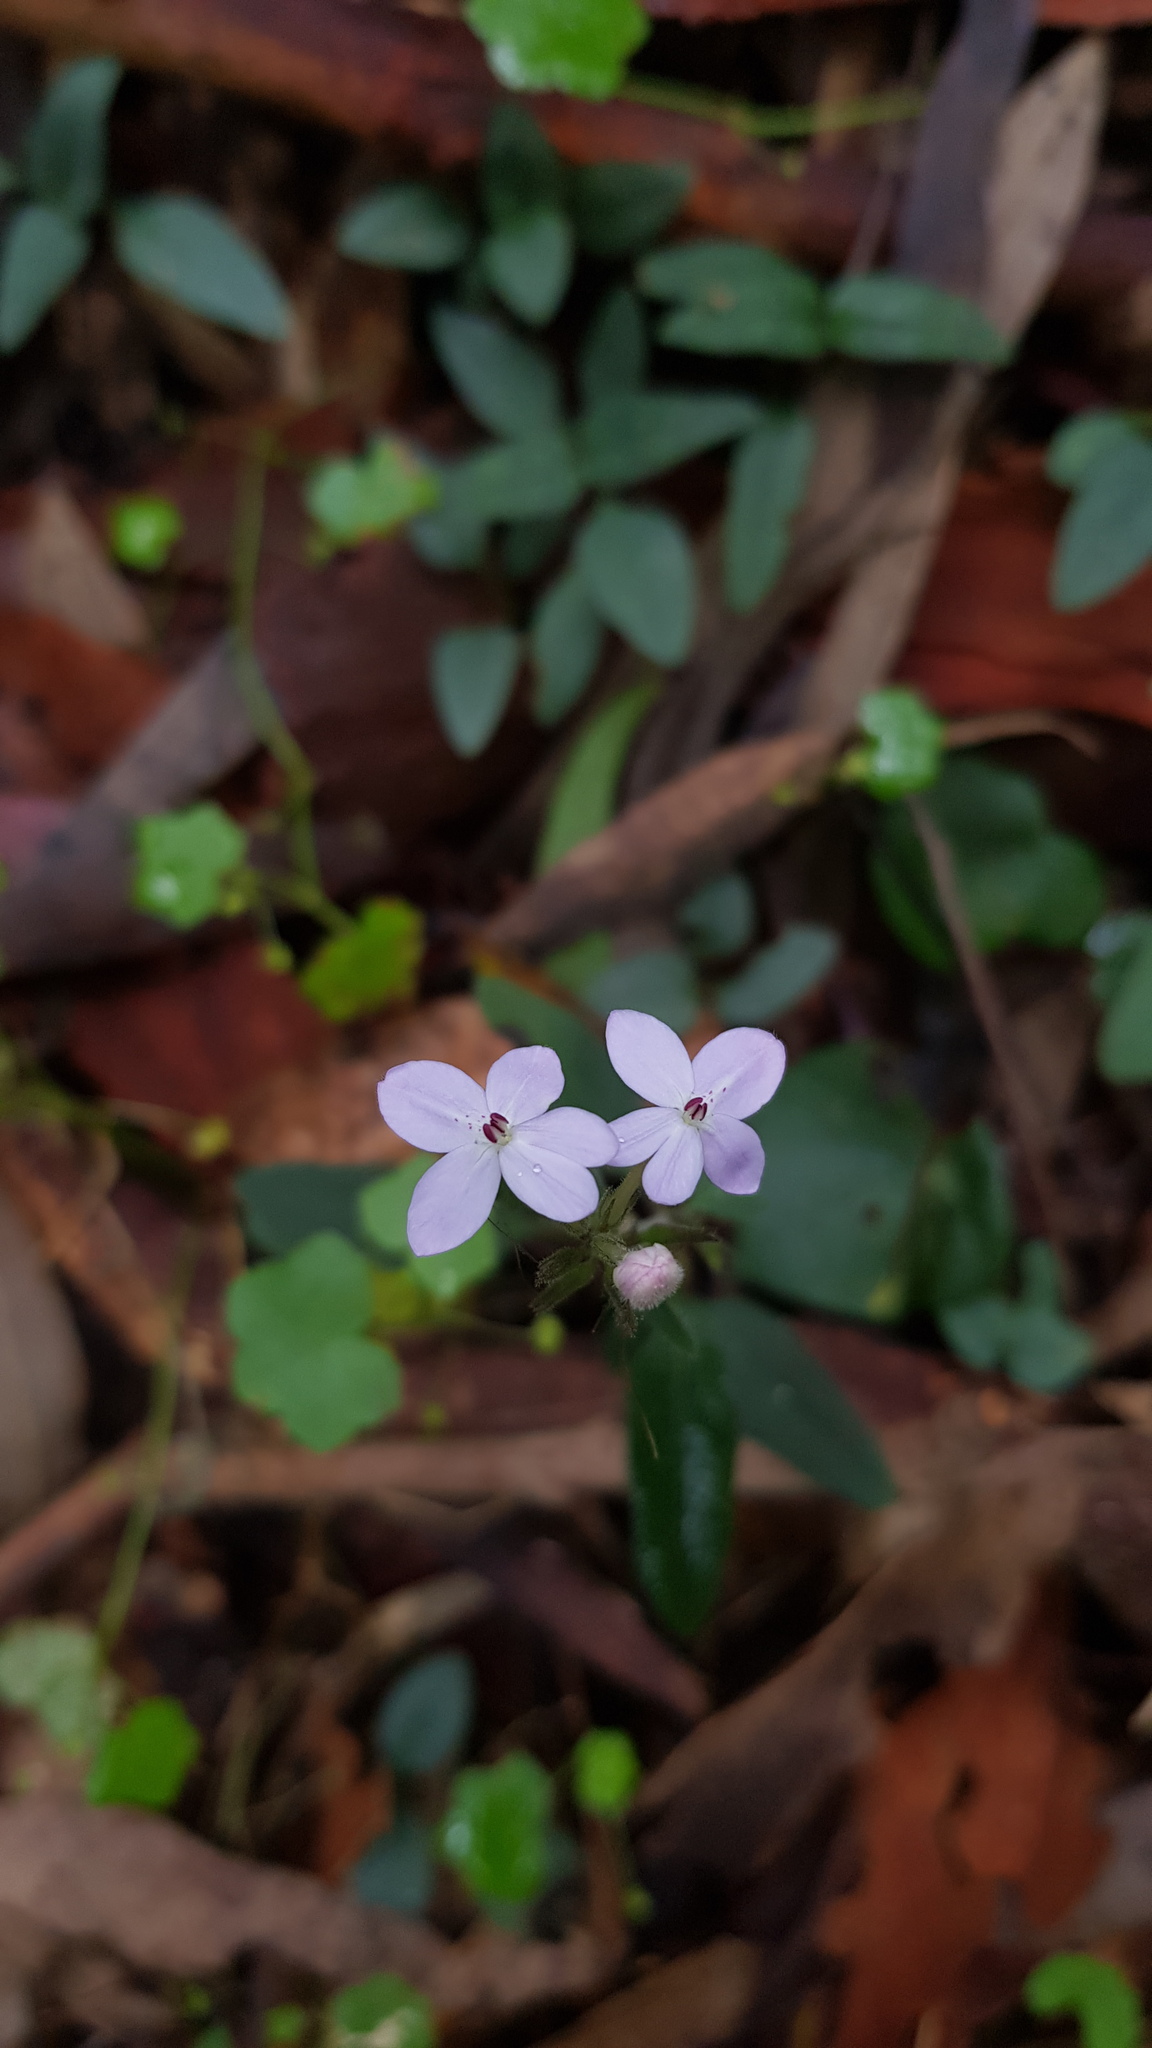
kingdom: Plantae
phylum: Tracheophyta
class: Magnoliopsida
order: Lamiales
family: Acanthaceae
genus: Pseuderanthemum
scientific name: Pseuderanthemum variabile
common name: Night and afternoon
